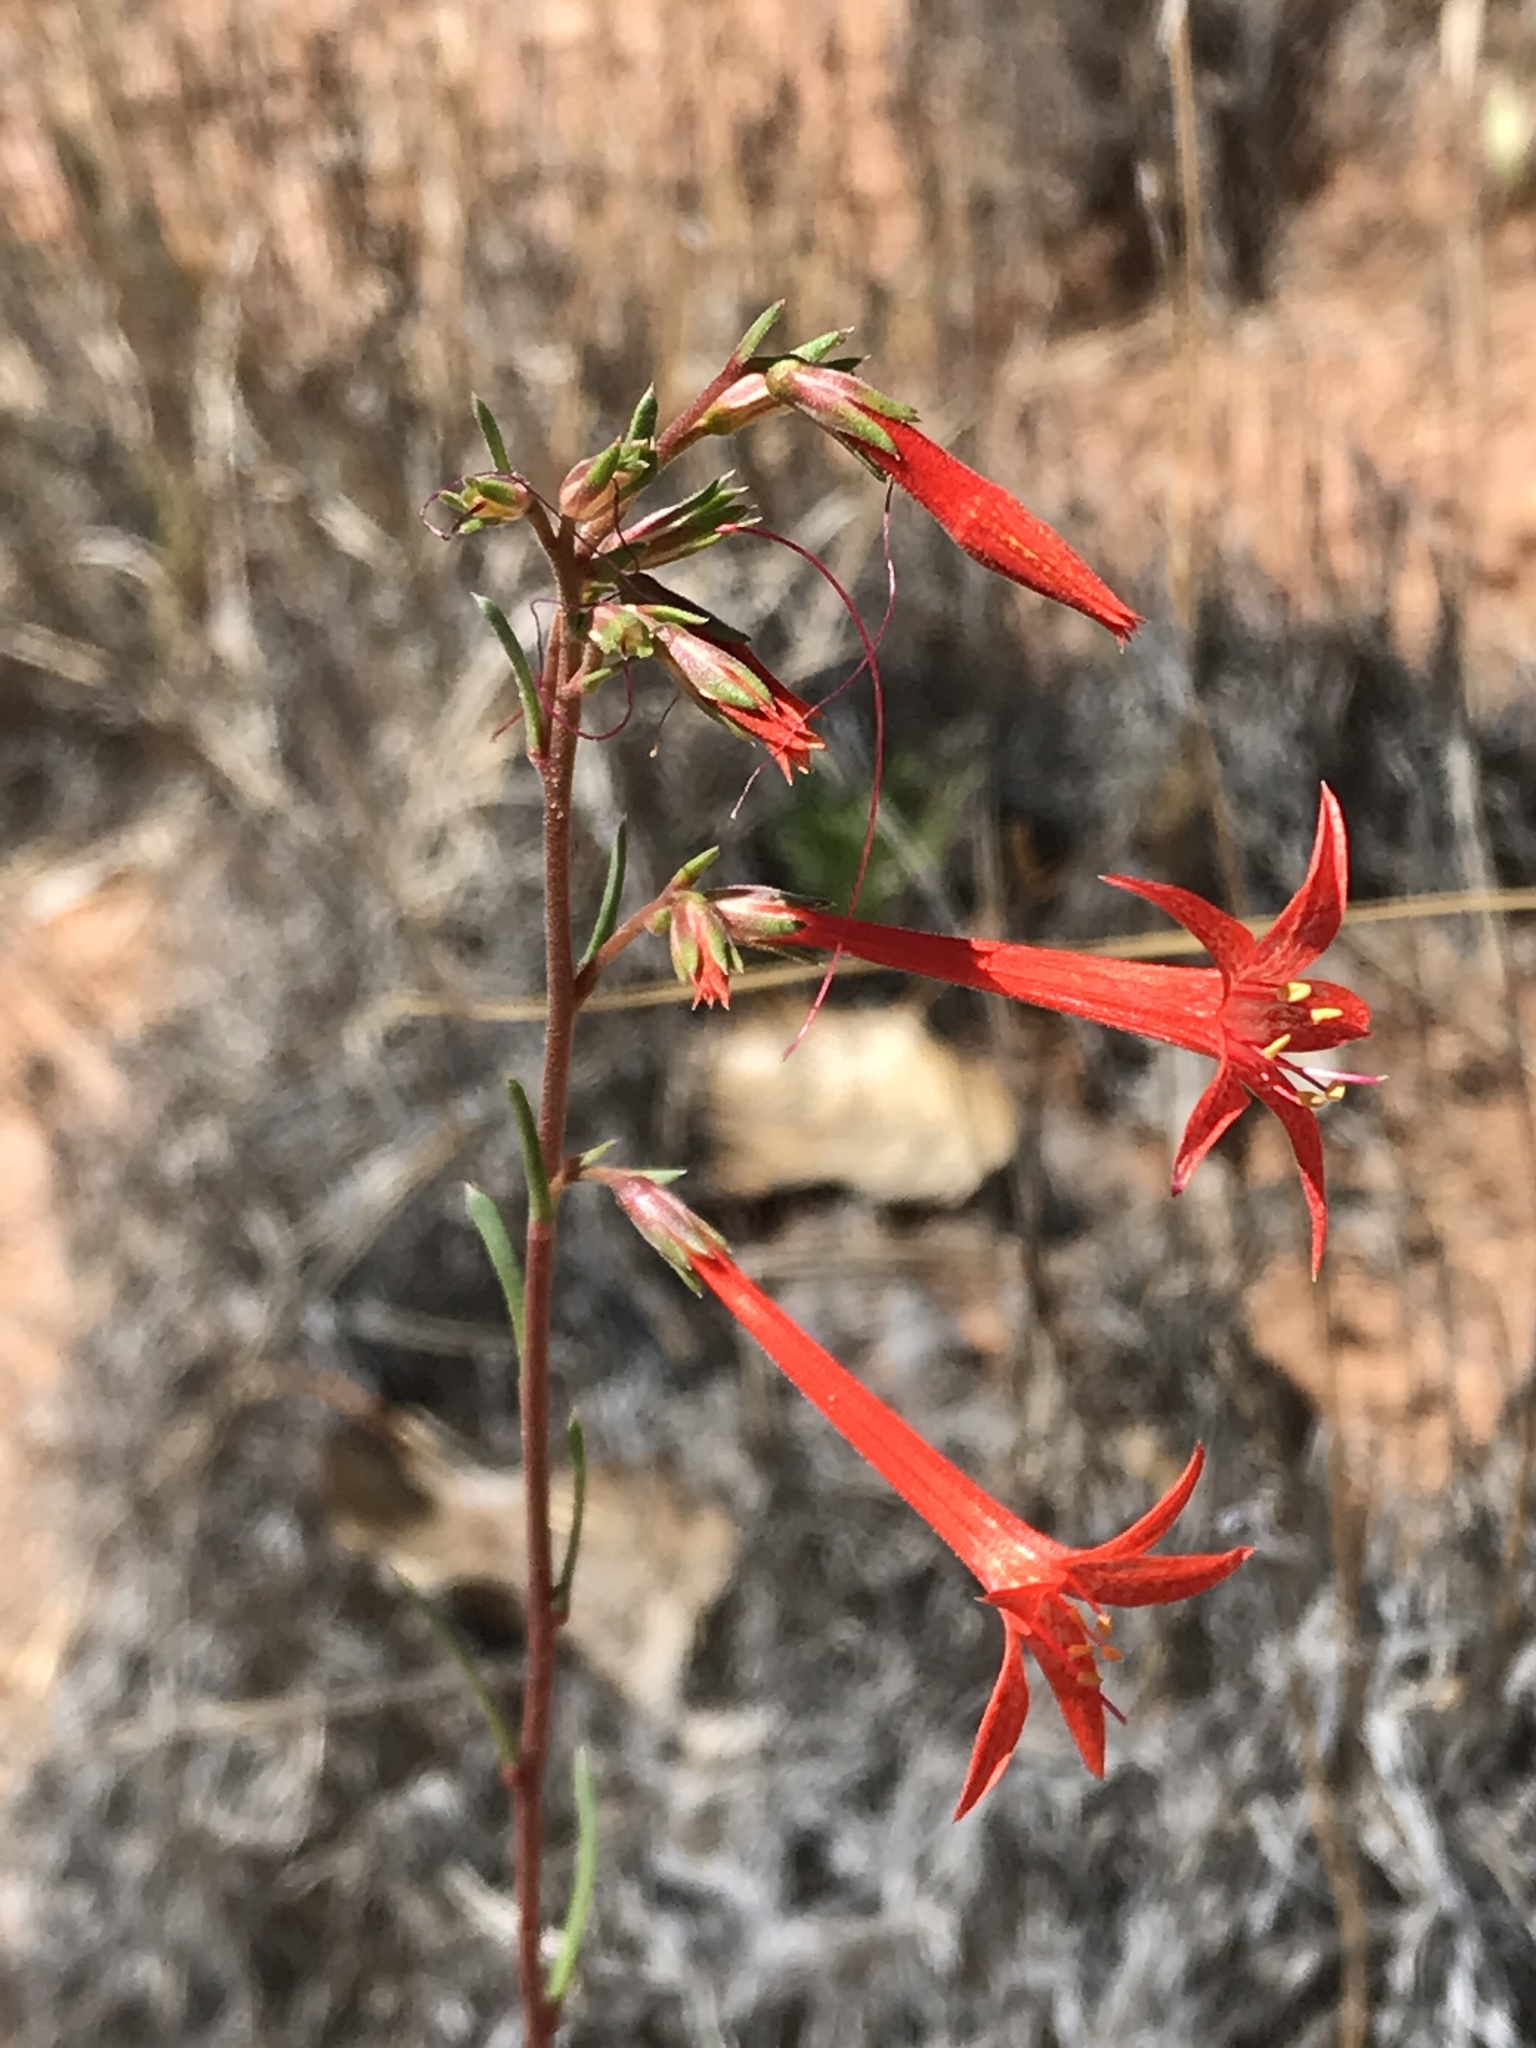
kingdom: Plantae
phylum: Tracheophyta
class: Magnoliopsida
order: Ericales
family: Polemoniaceae
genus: Ipomopsis
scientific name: Ipomopsis aggregata
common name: Scarlet gilia
